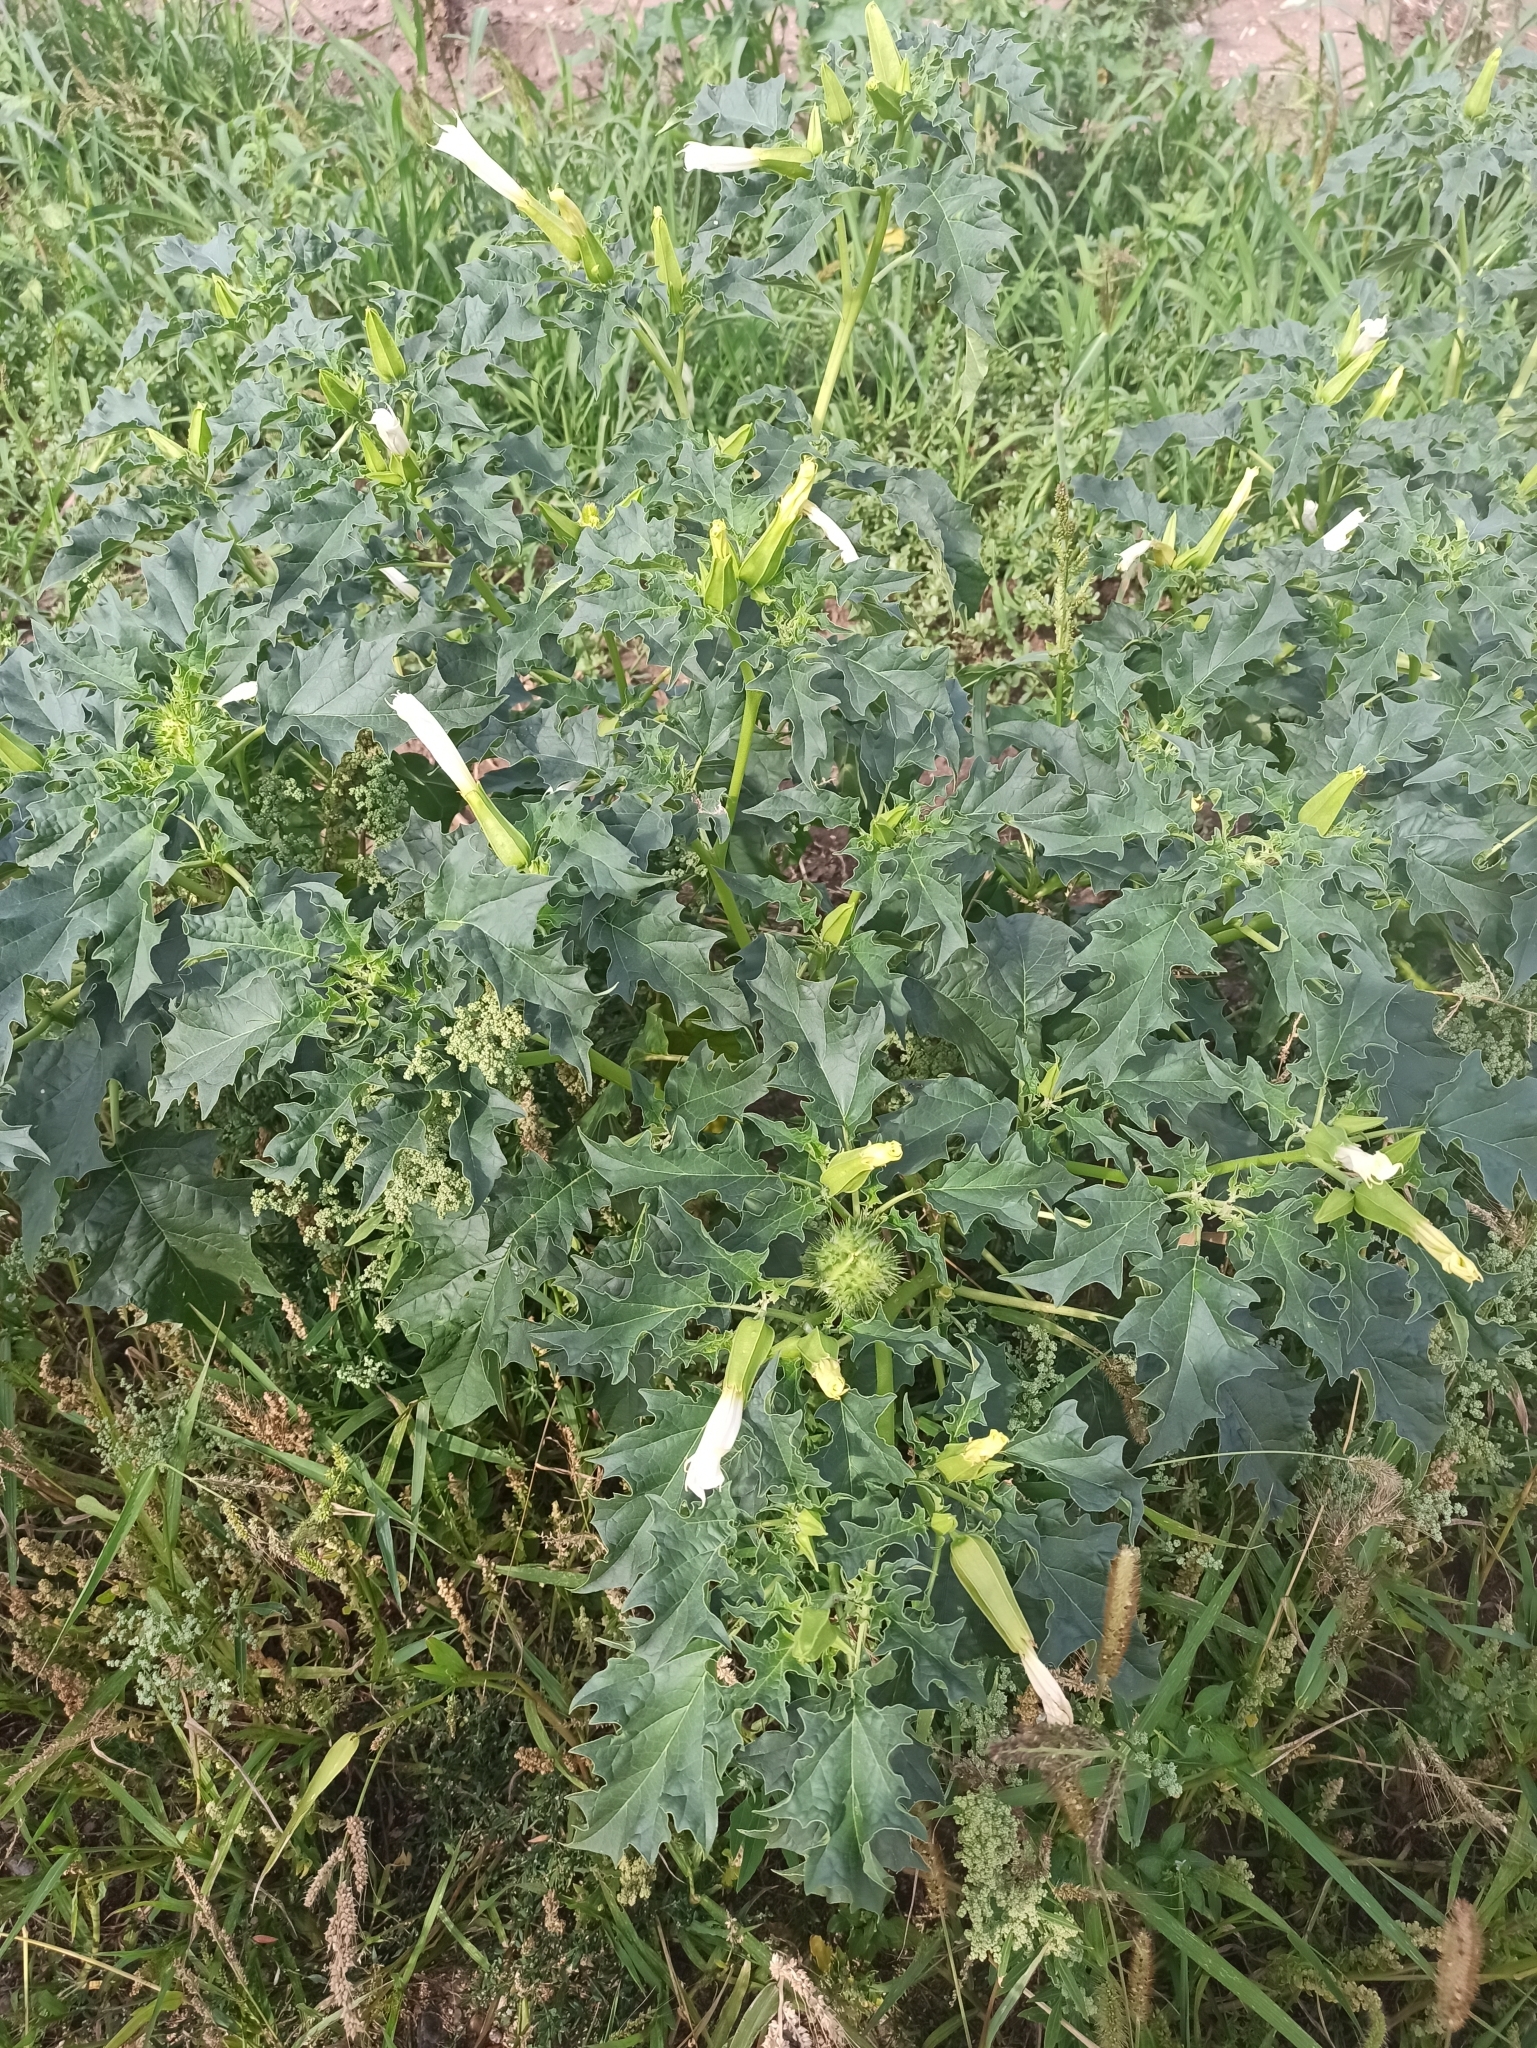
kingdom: Plantae
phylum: Tracheophyta
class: Magnoliopsida
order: Solanales
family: Solanaceae
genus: Datura
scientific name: Datura stramonium
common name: Thorn-apple
